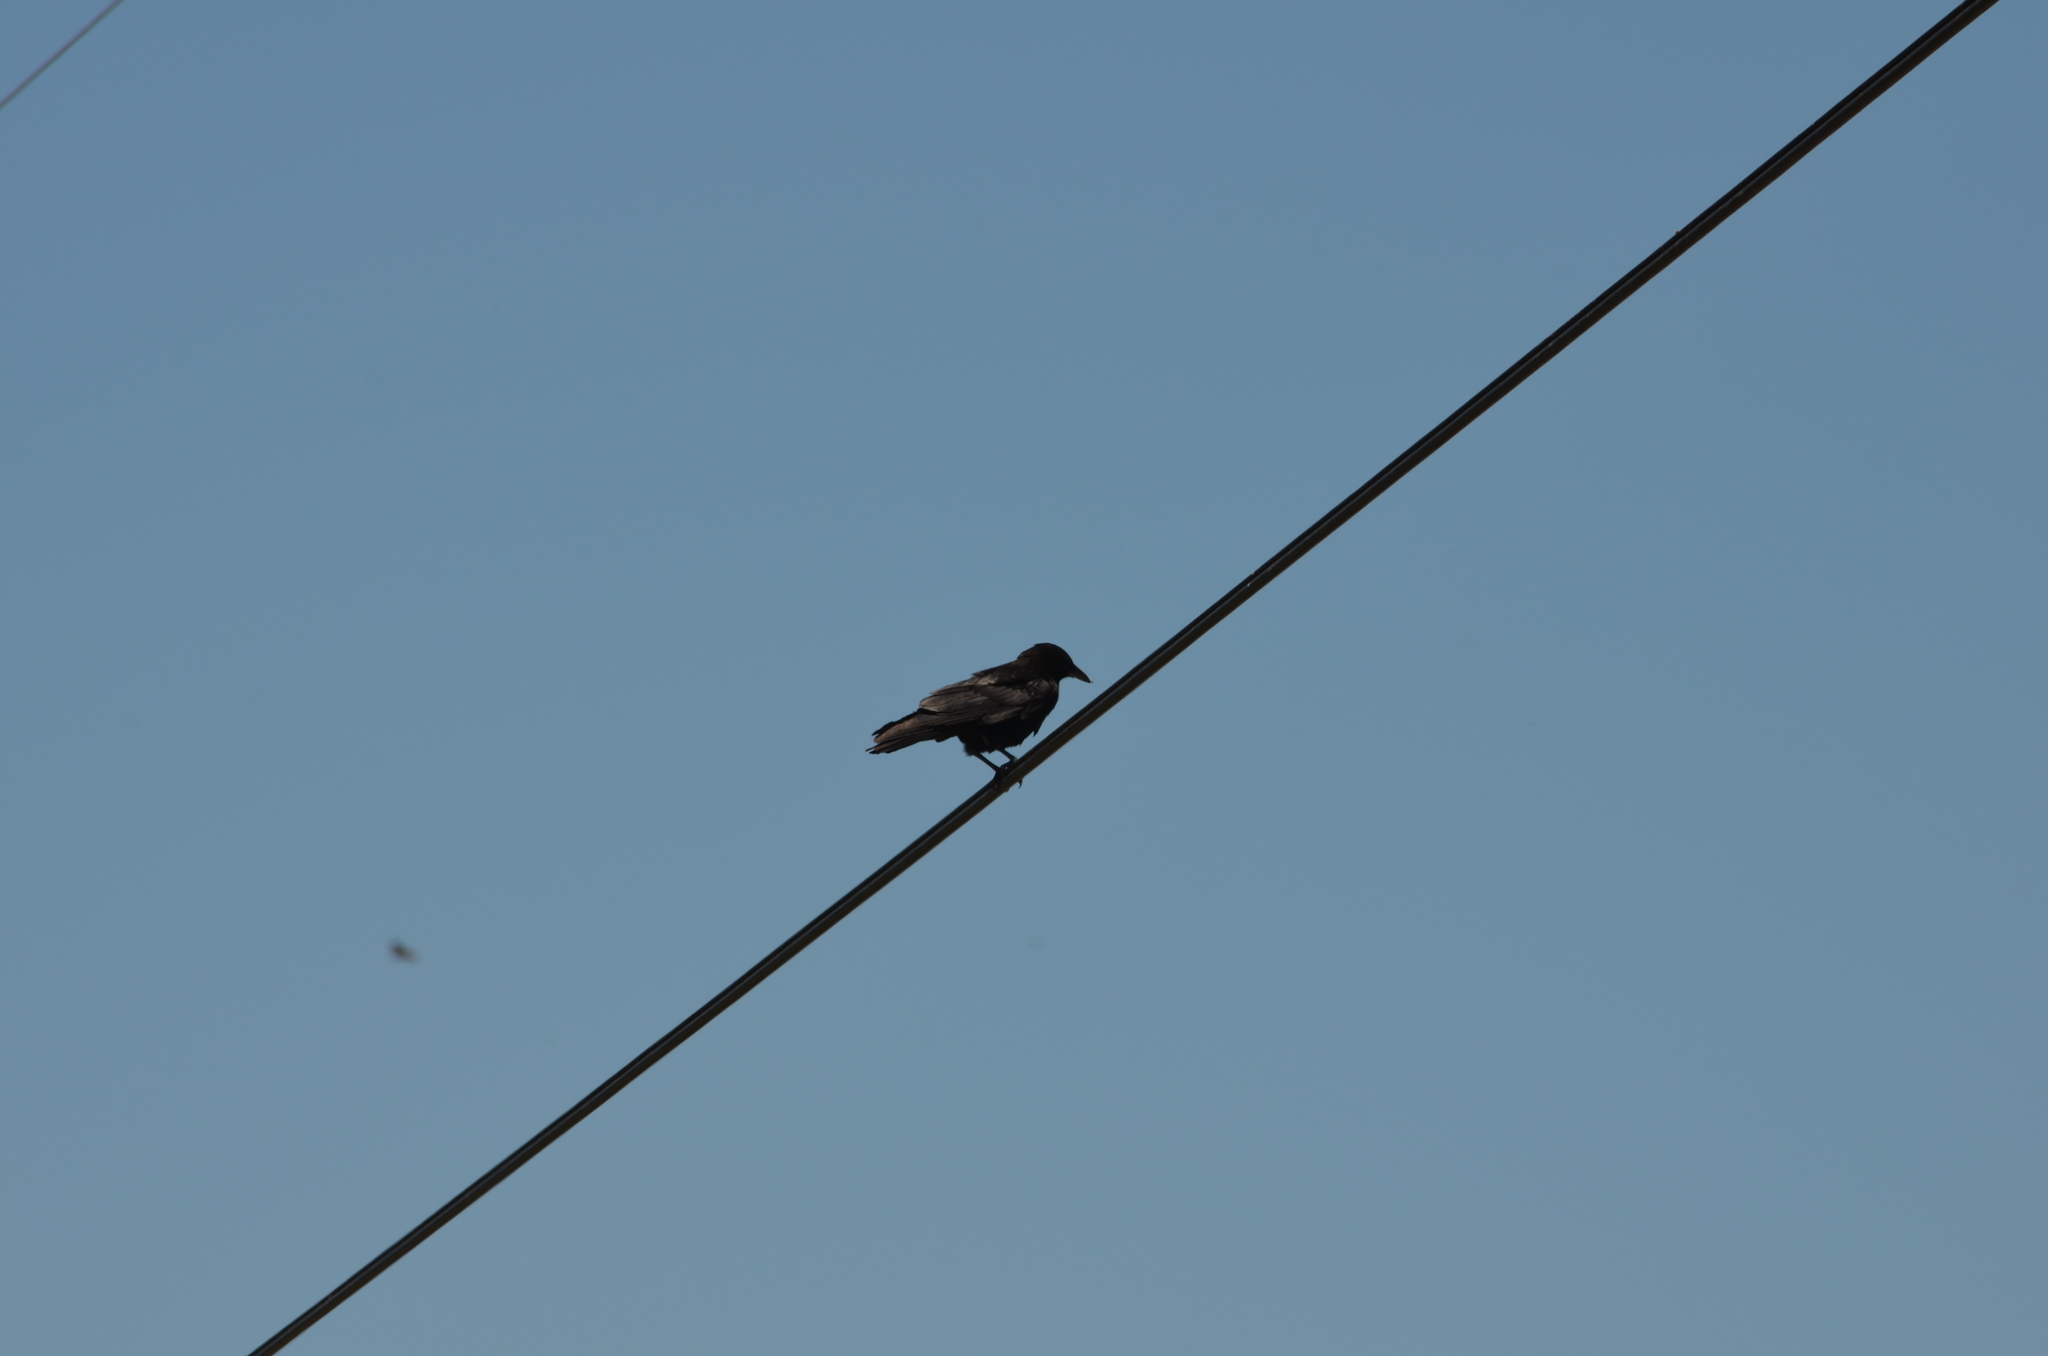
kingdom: Animalia
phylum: Chordata
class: Aves
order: Passeriformes
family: Corvidae
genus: Corvus
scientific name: Corvus brachyrhynchos
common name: American crow
